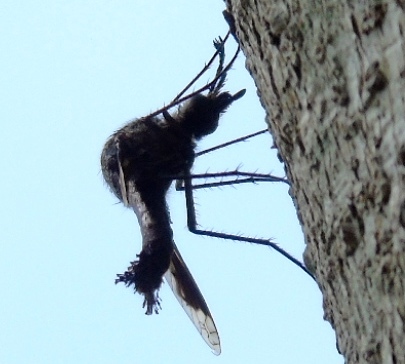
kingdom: Animalia
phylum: Arthropoda
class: Insecta
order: Diptera
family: Bombyliidae
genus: Lepidophora
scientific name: Lepidophora vetusta
